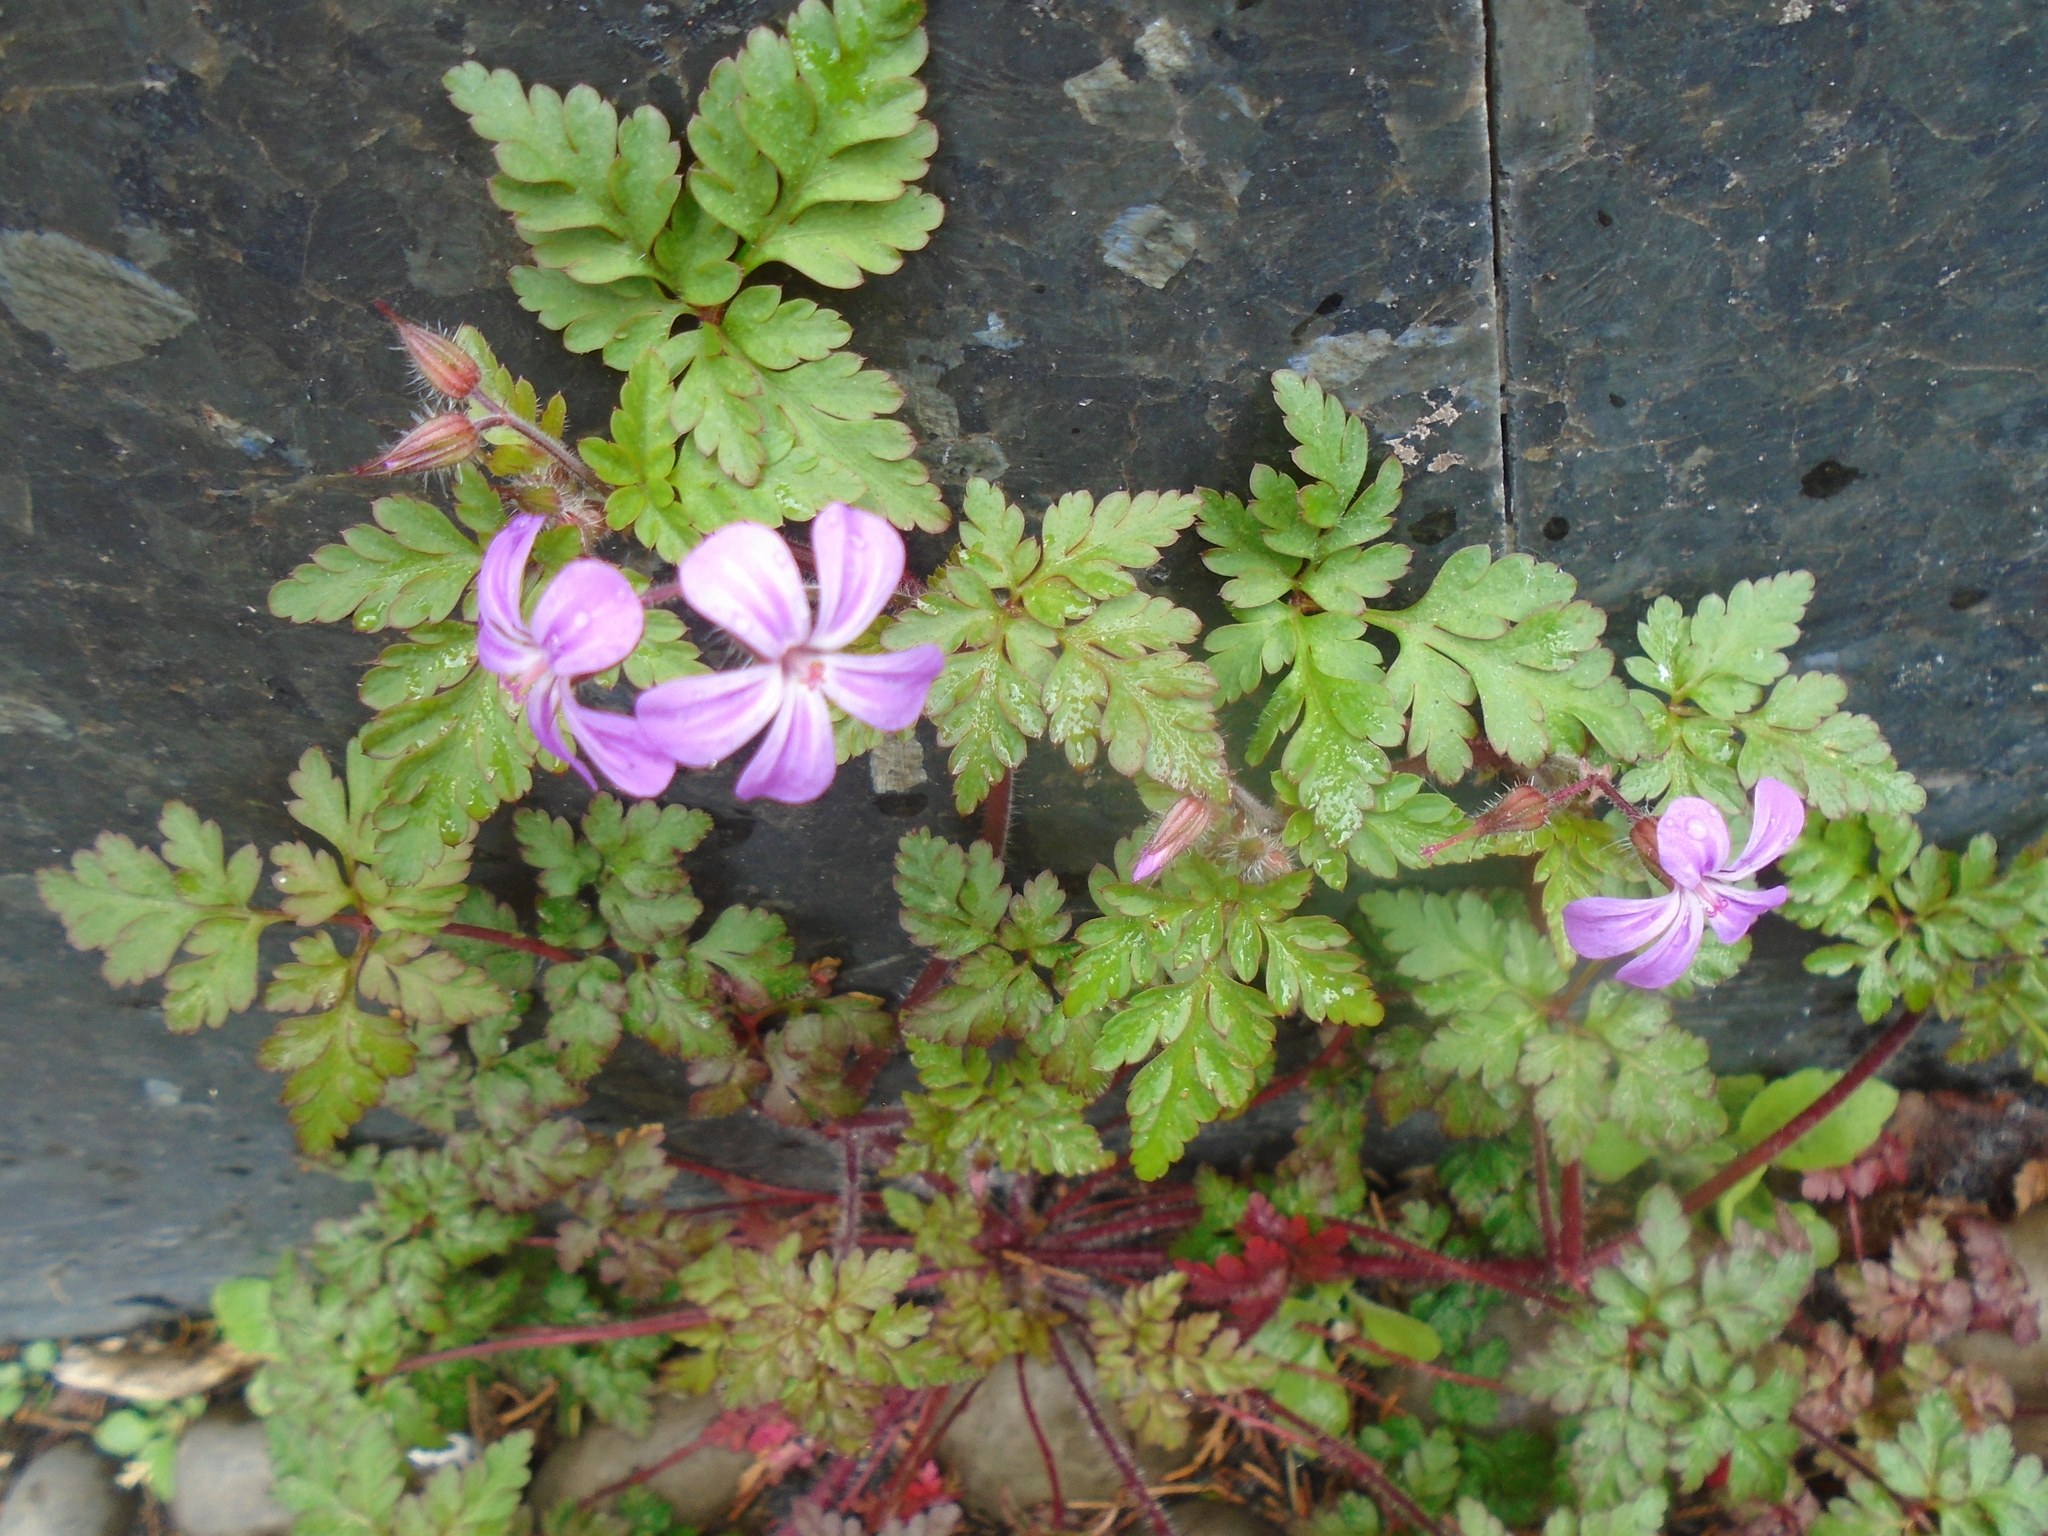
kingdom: Plantae
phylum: Tracheophyta
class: Magnoliopsida
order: Geraniales
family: Geraniaceae
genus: Geranium
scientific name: Geranium robertianum
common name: Herb-robert
